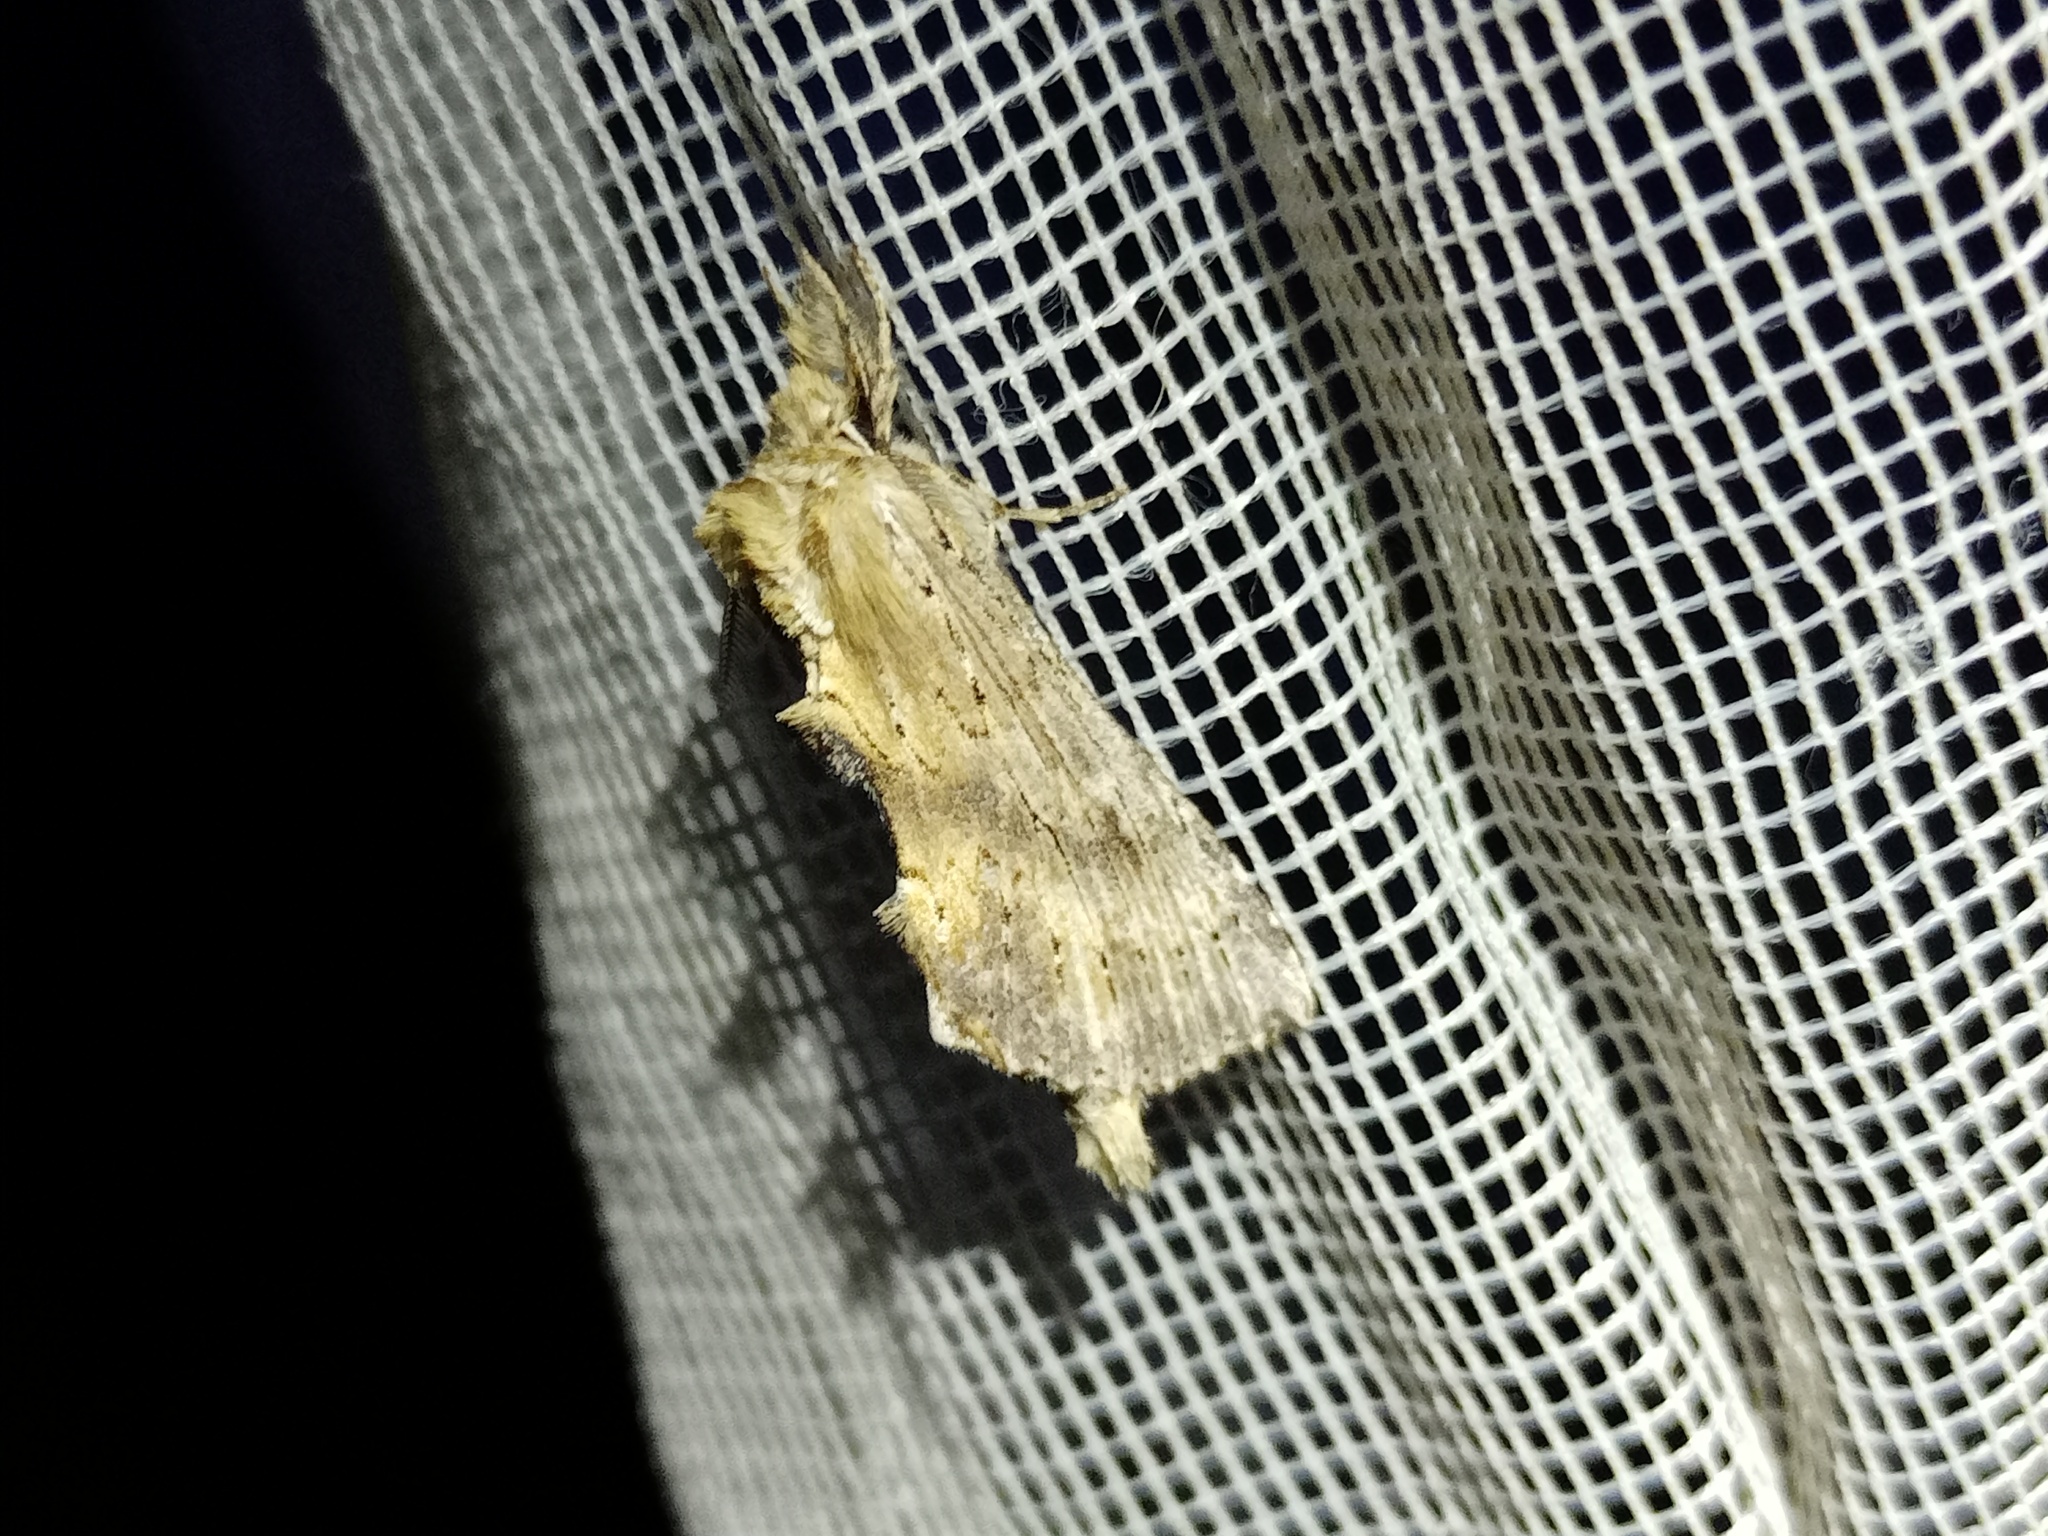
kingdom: Animalia
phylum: Arthropoda
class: Insecta
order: Lepidoptera
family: Notodontidae
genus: Pterostoma
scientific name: Pterostoma palpina
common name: Pale prominent
